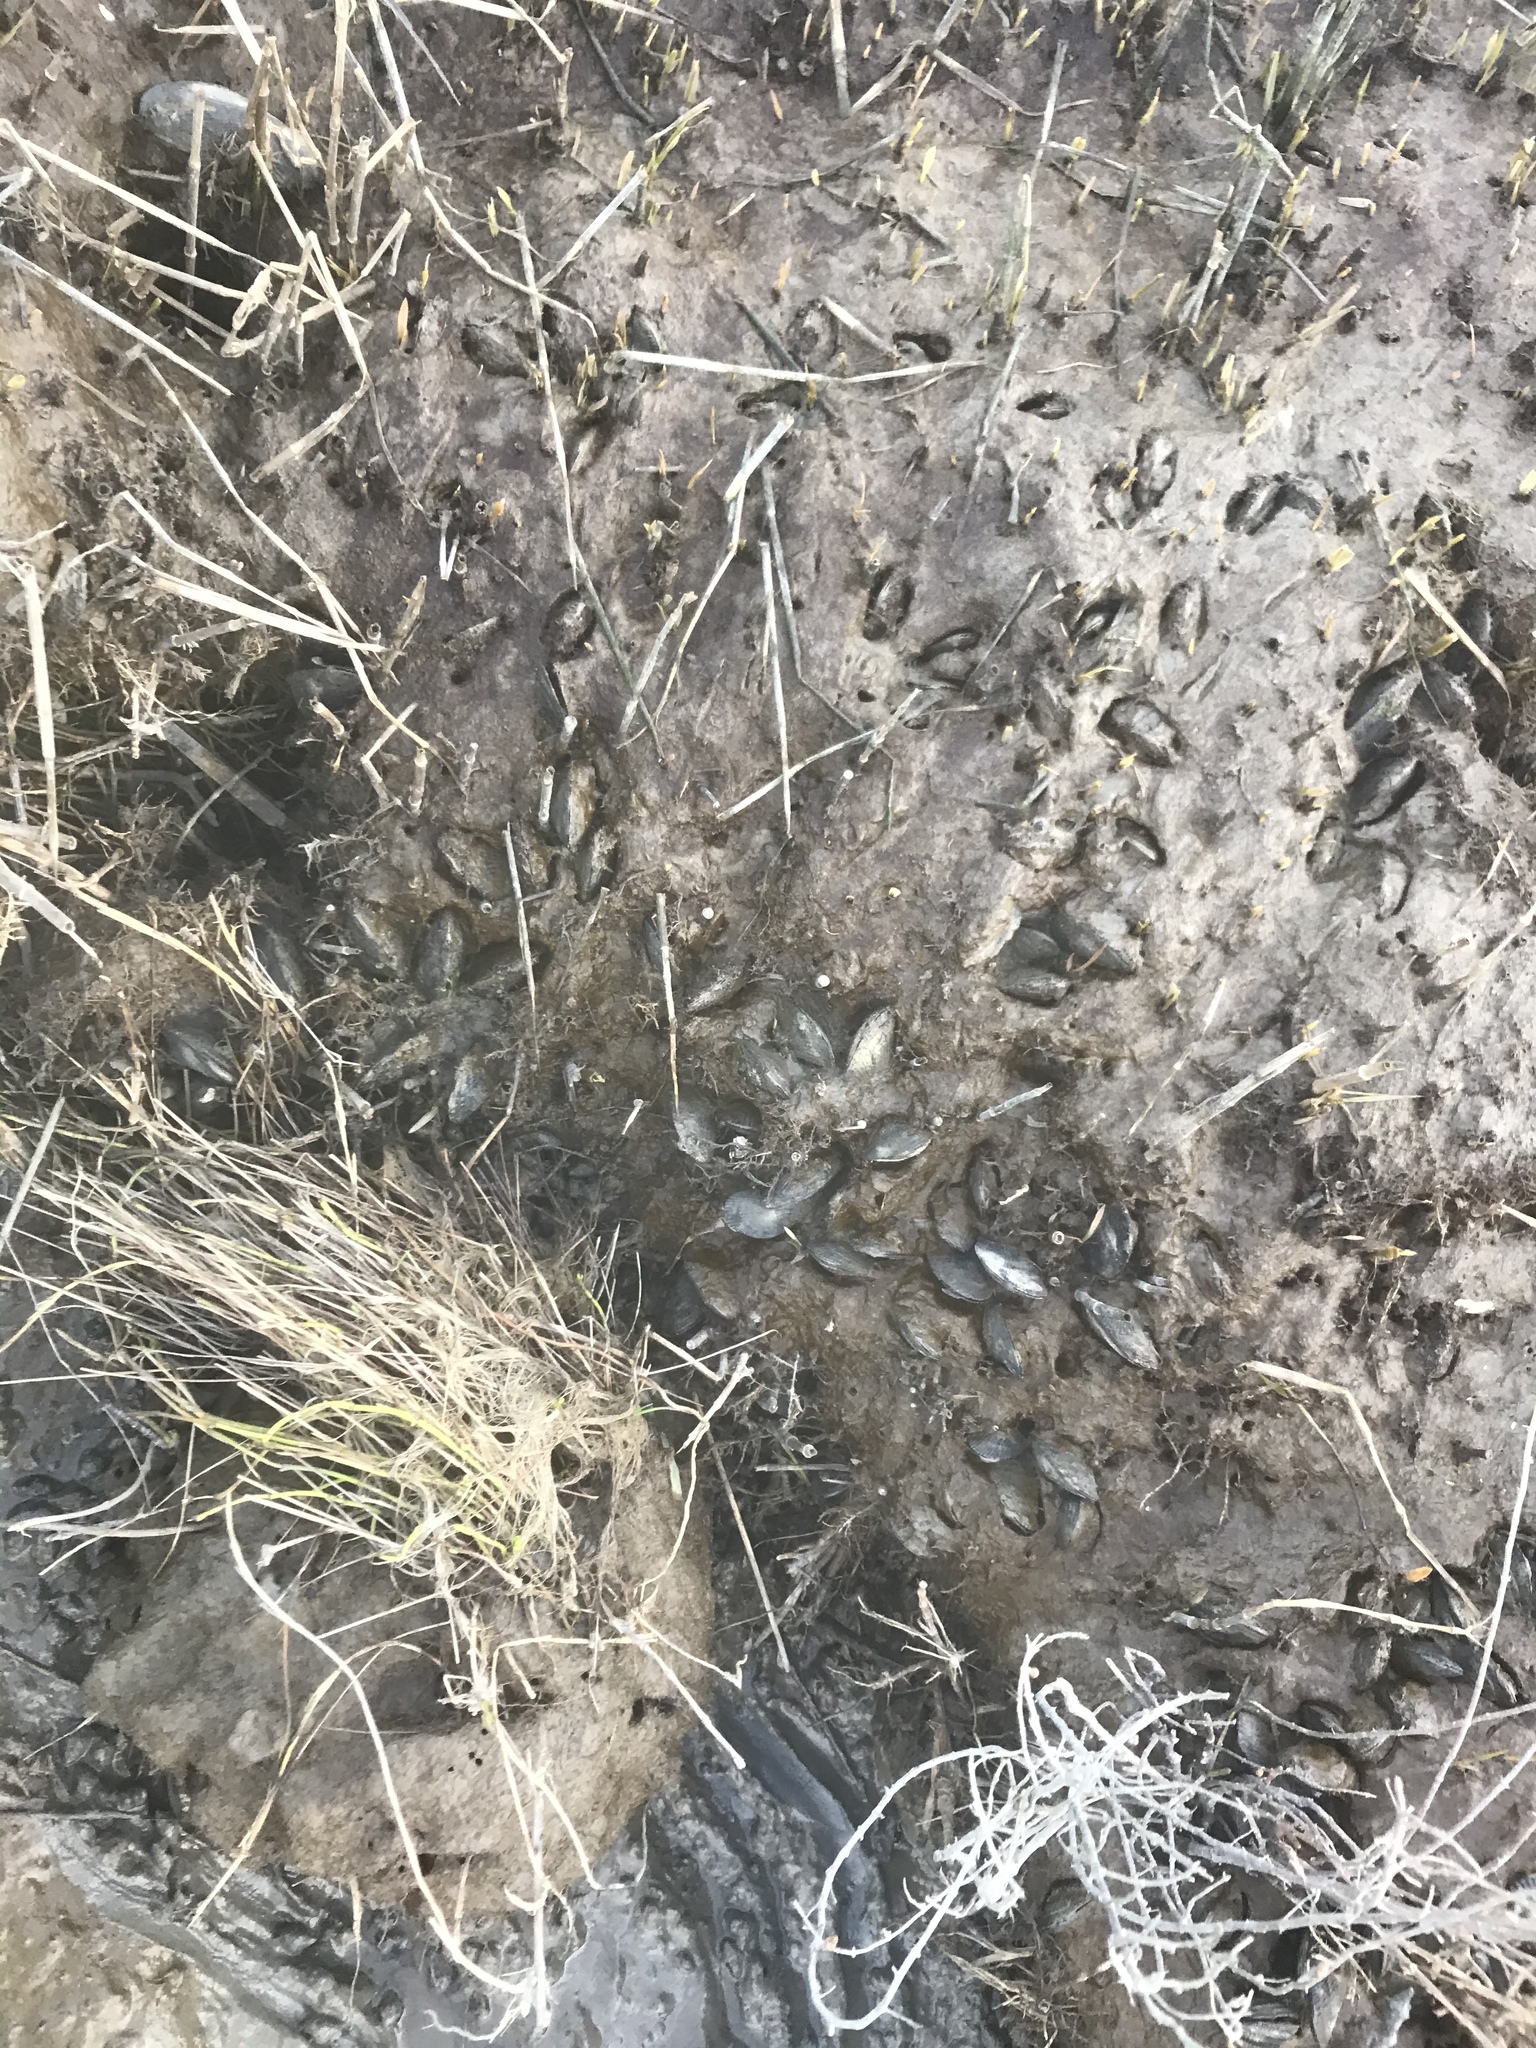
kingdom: Animalia
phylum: Mollusca
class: Bivalvia
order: Mytilida
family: Mytilidae
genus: Geukensia
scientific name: Geukensia demissa
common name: Ribbed mussel
